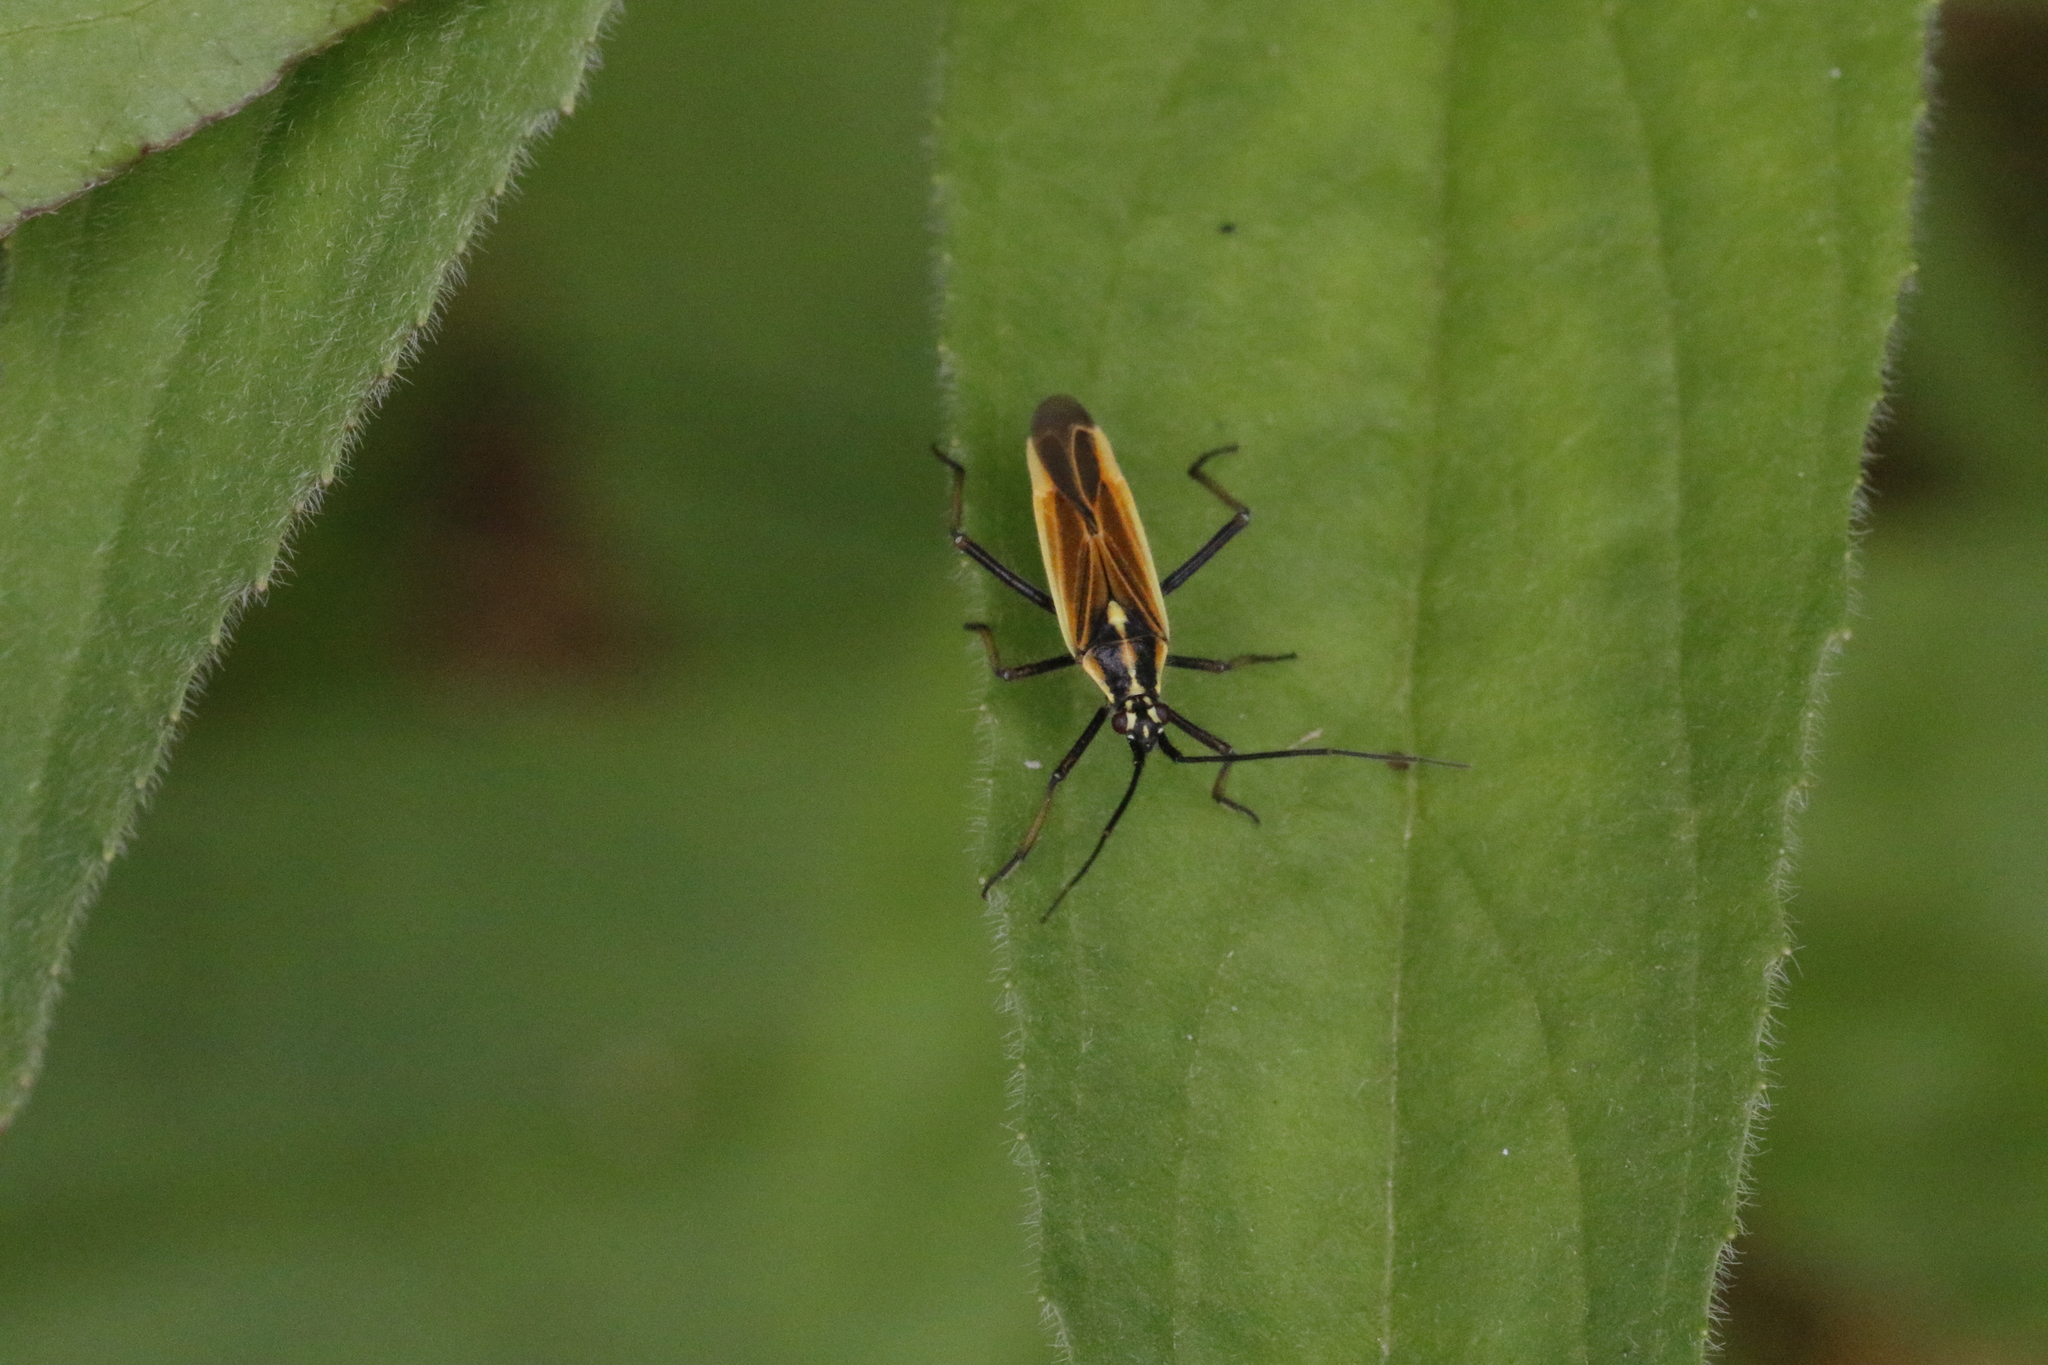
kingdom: Animalia
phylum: Arthropoda
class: Insecta
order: Hemiptera
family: Miridae
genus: Leptopterna
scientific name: Leptopterna dolabrata
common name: Meadow plant bug
